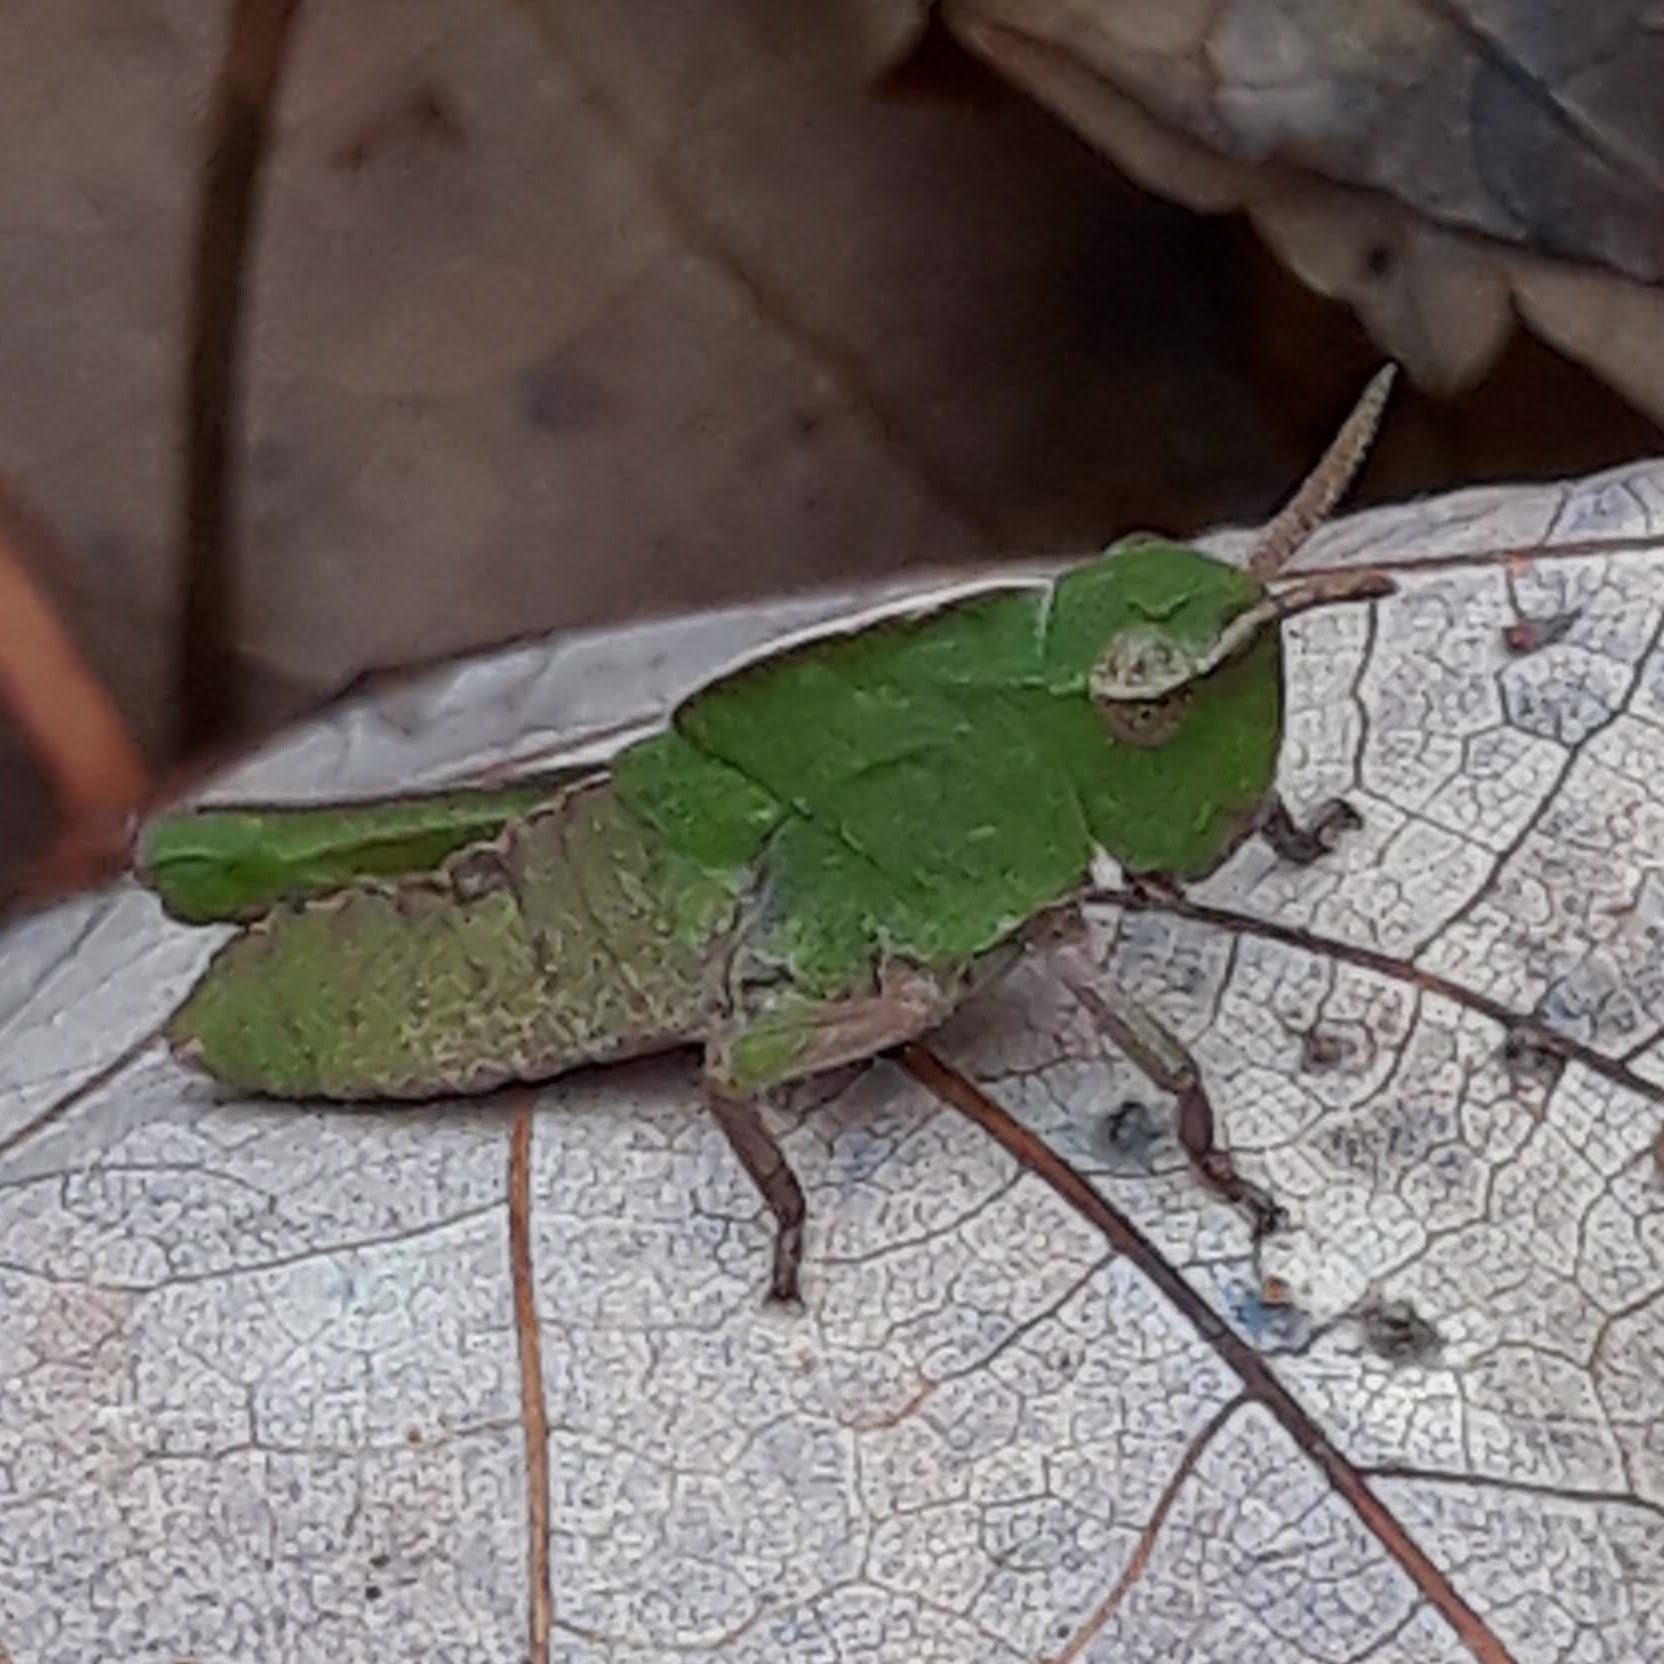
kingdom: Animalia
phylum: Arthropoda
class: Insecta
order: Orthoptera
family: Acrididae
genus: Chortophaga
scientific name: Chortophaga viridifasciata
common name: Green-striped grasshopper
